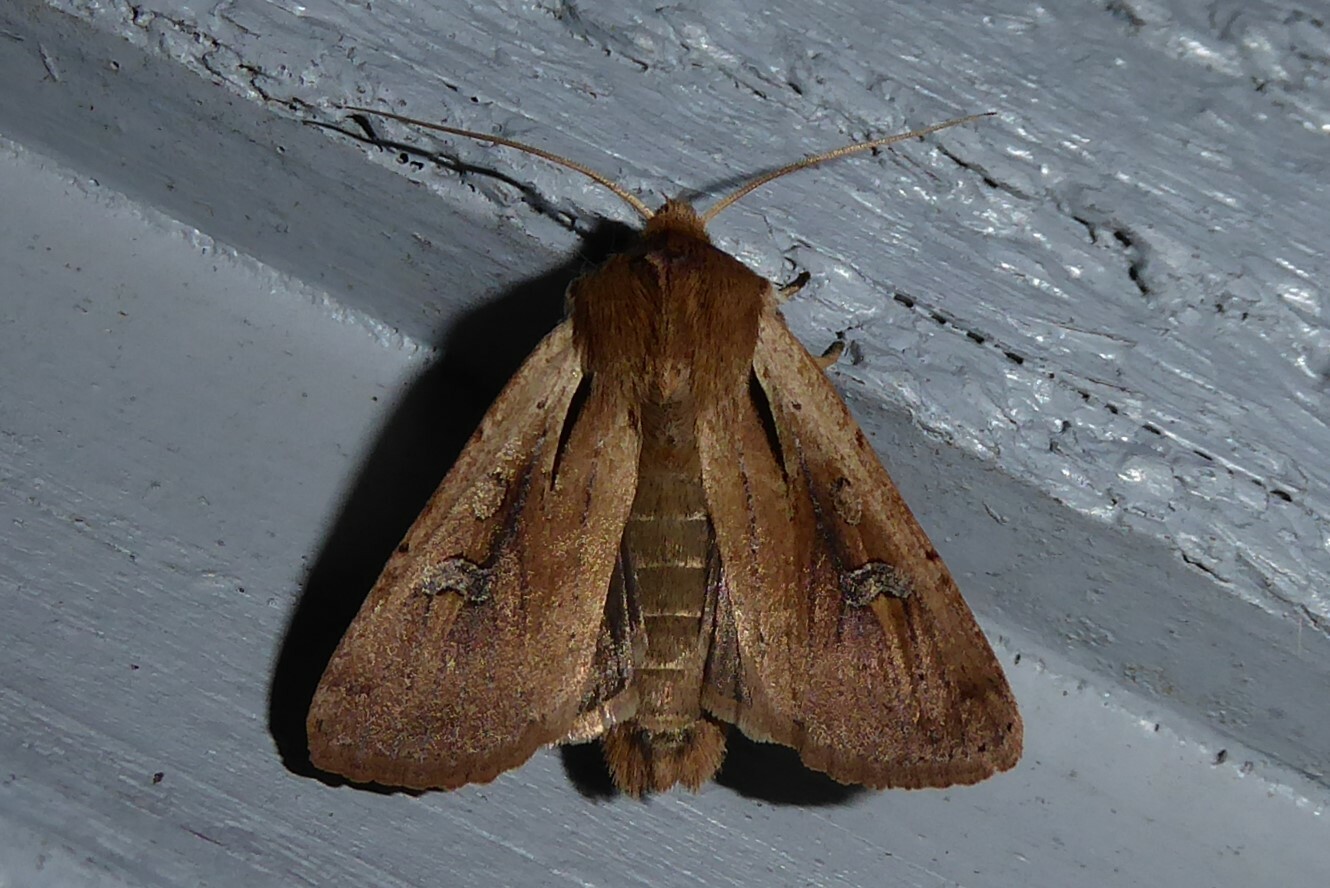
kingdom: Animalia
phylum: Arthropoda
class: Insecta
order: Lepidoptera
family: Noctuidae
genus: Ichneutica
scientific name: Ichneutica atristriga
